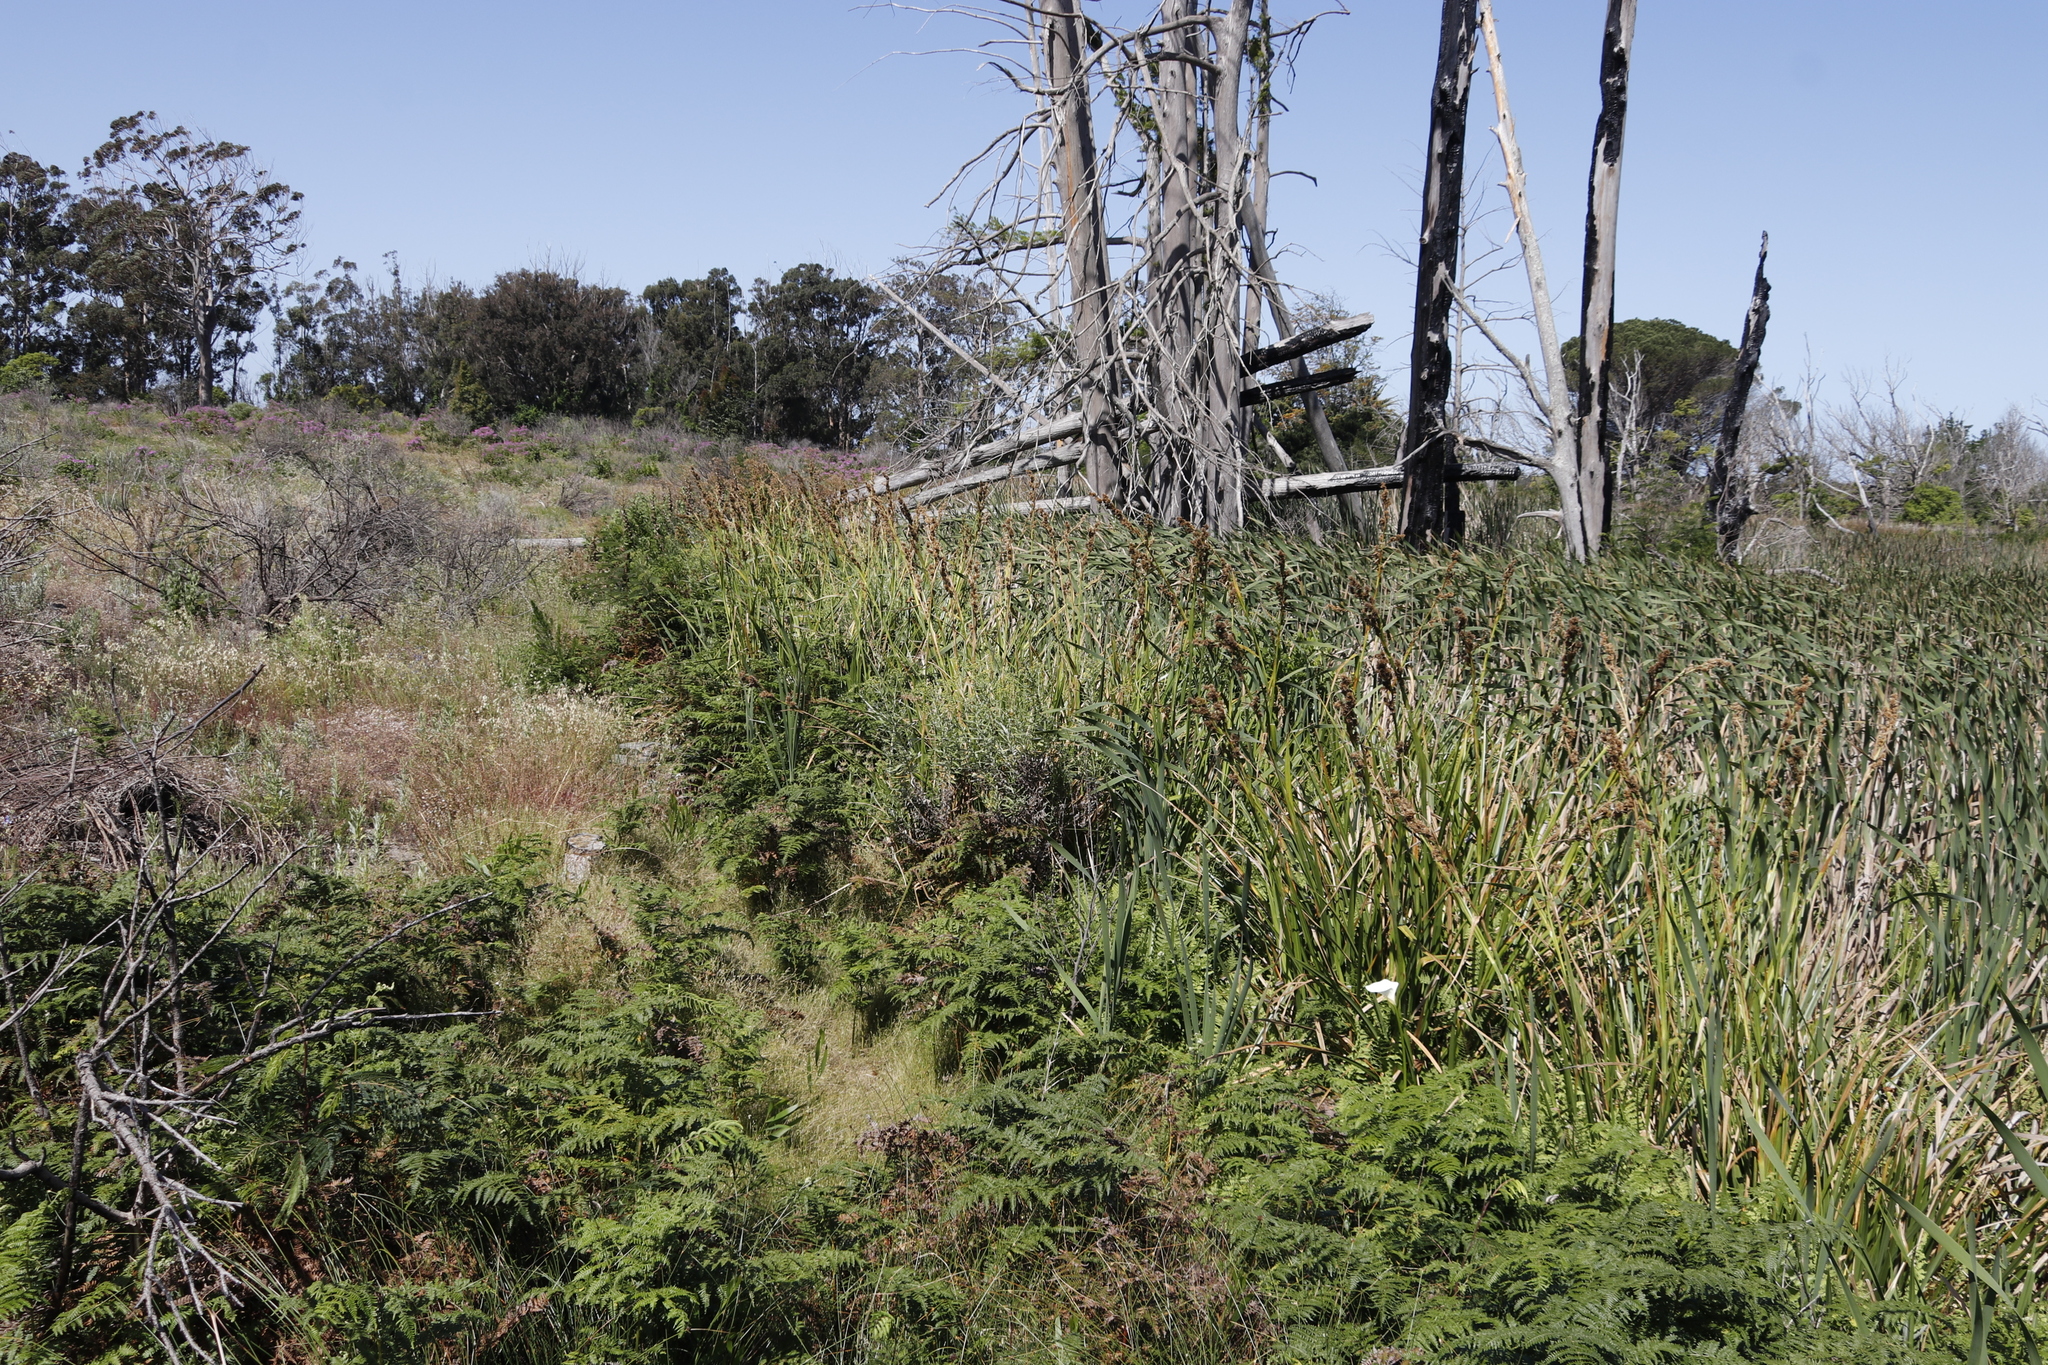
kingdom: Plantae
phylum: Tracheophyta
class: Magnoliopsida
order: Asterales
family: Asteraceae
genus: Osteospermum
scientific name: Osteospermum moniliferum
